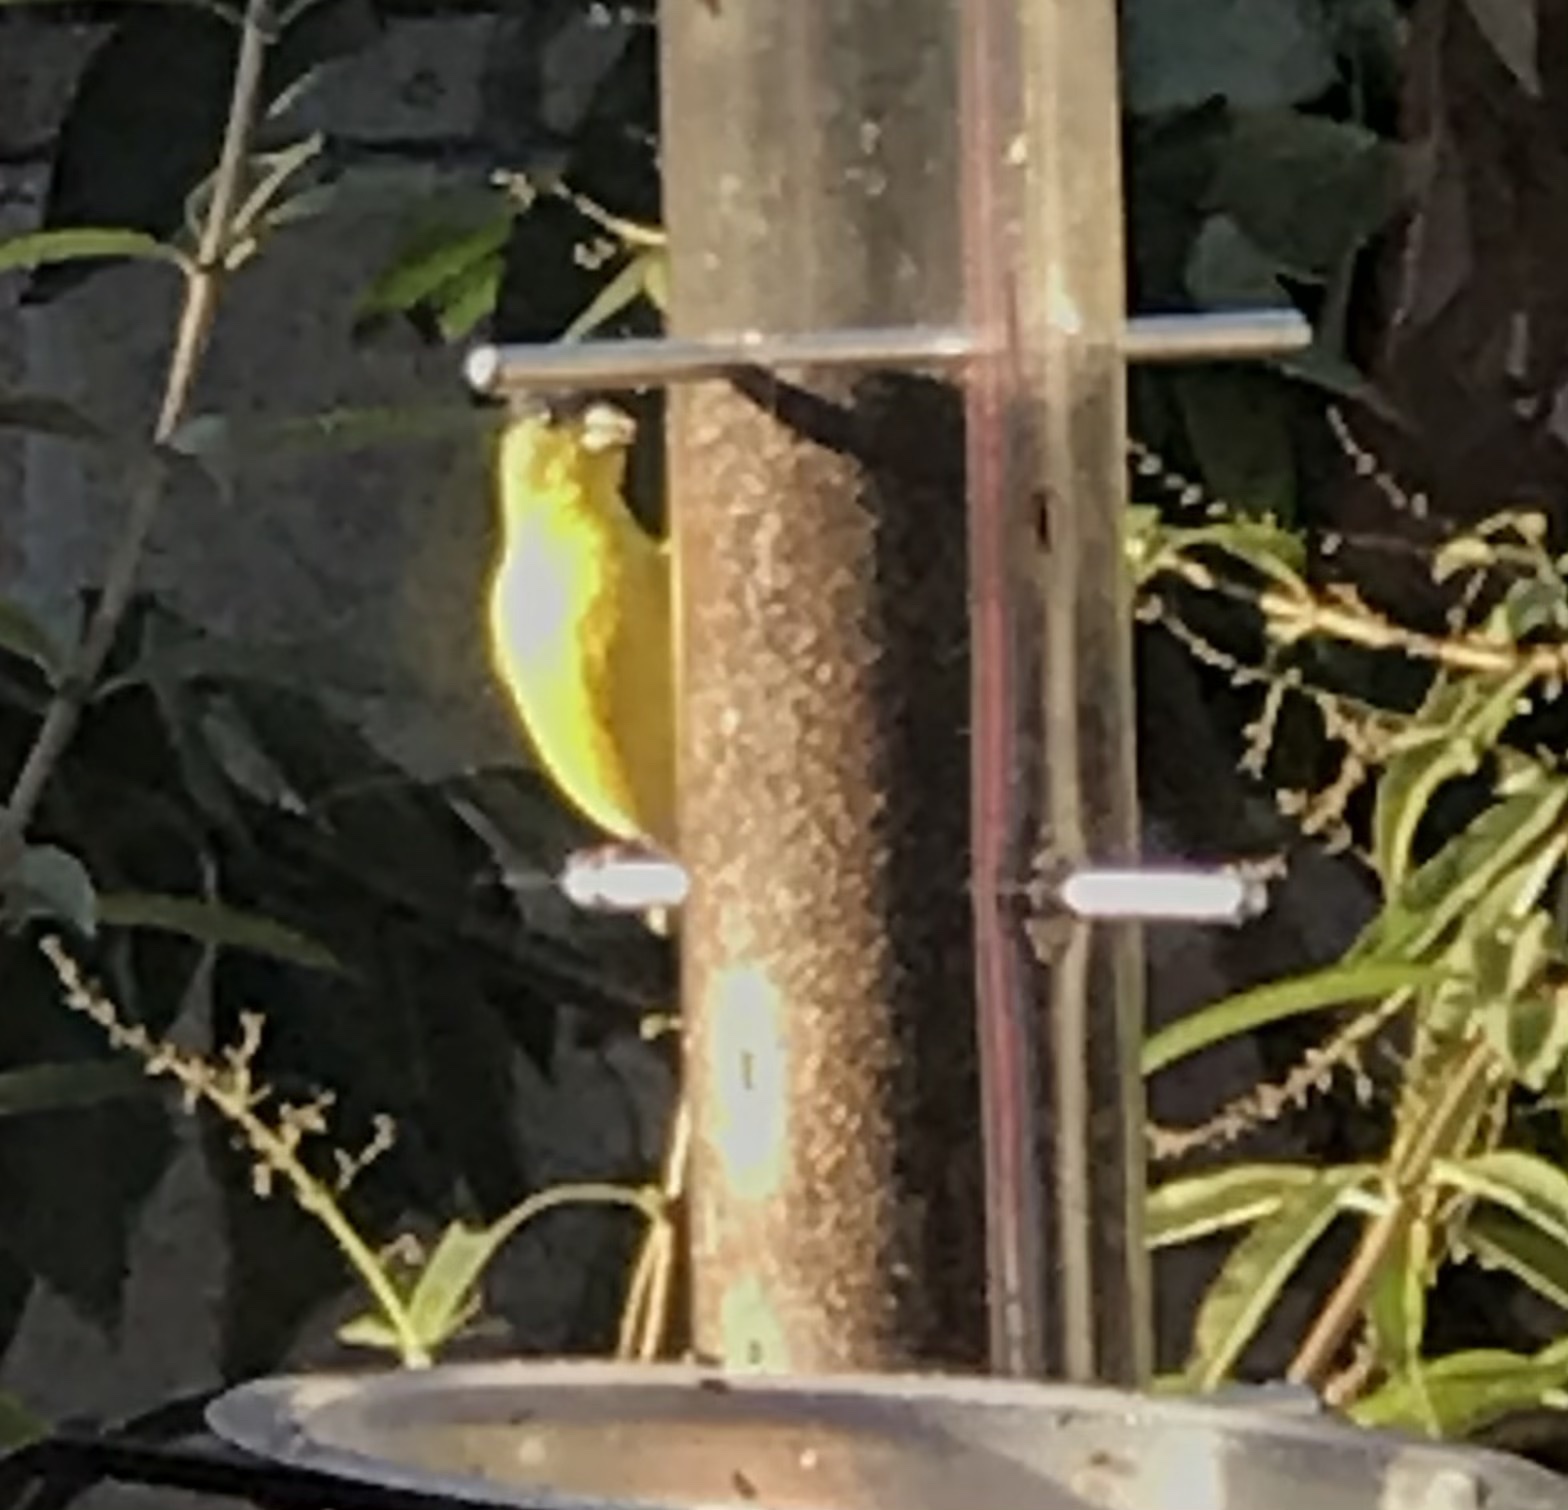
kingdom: Animalia
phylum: Chordata
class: Aves
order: Passeriformes
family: Fringillidae
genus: Spinus
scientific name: Spinus psaltria
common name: Lesser goldfinch
